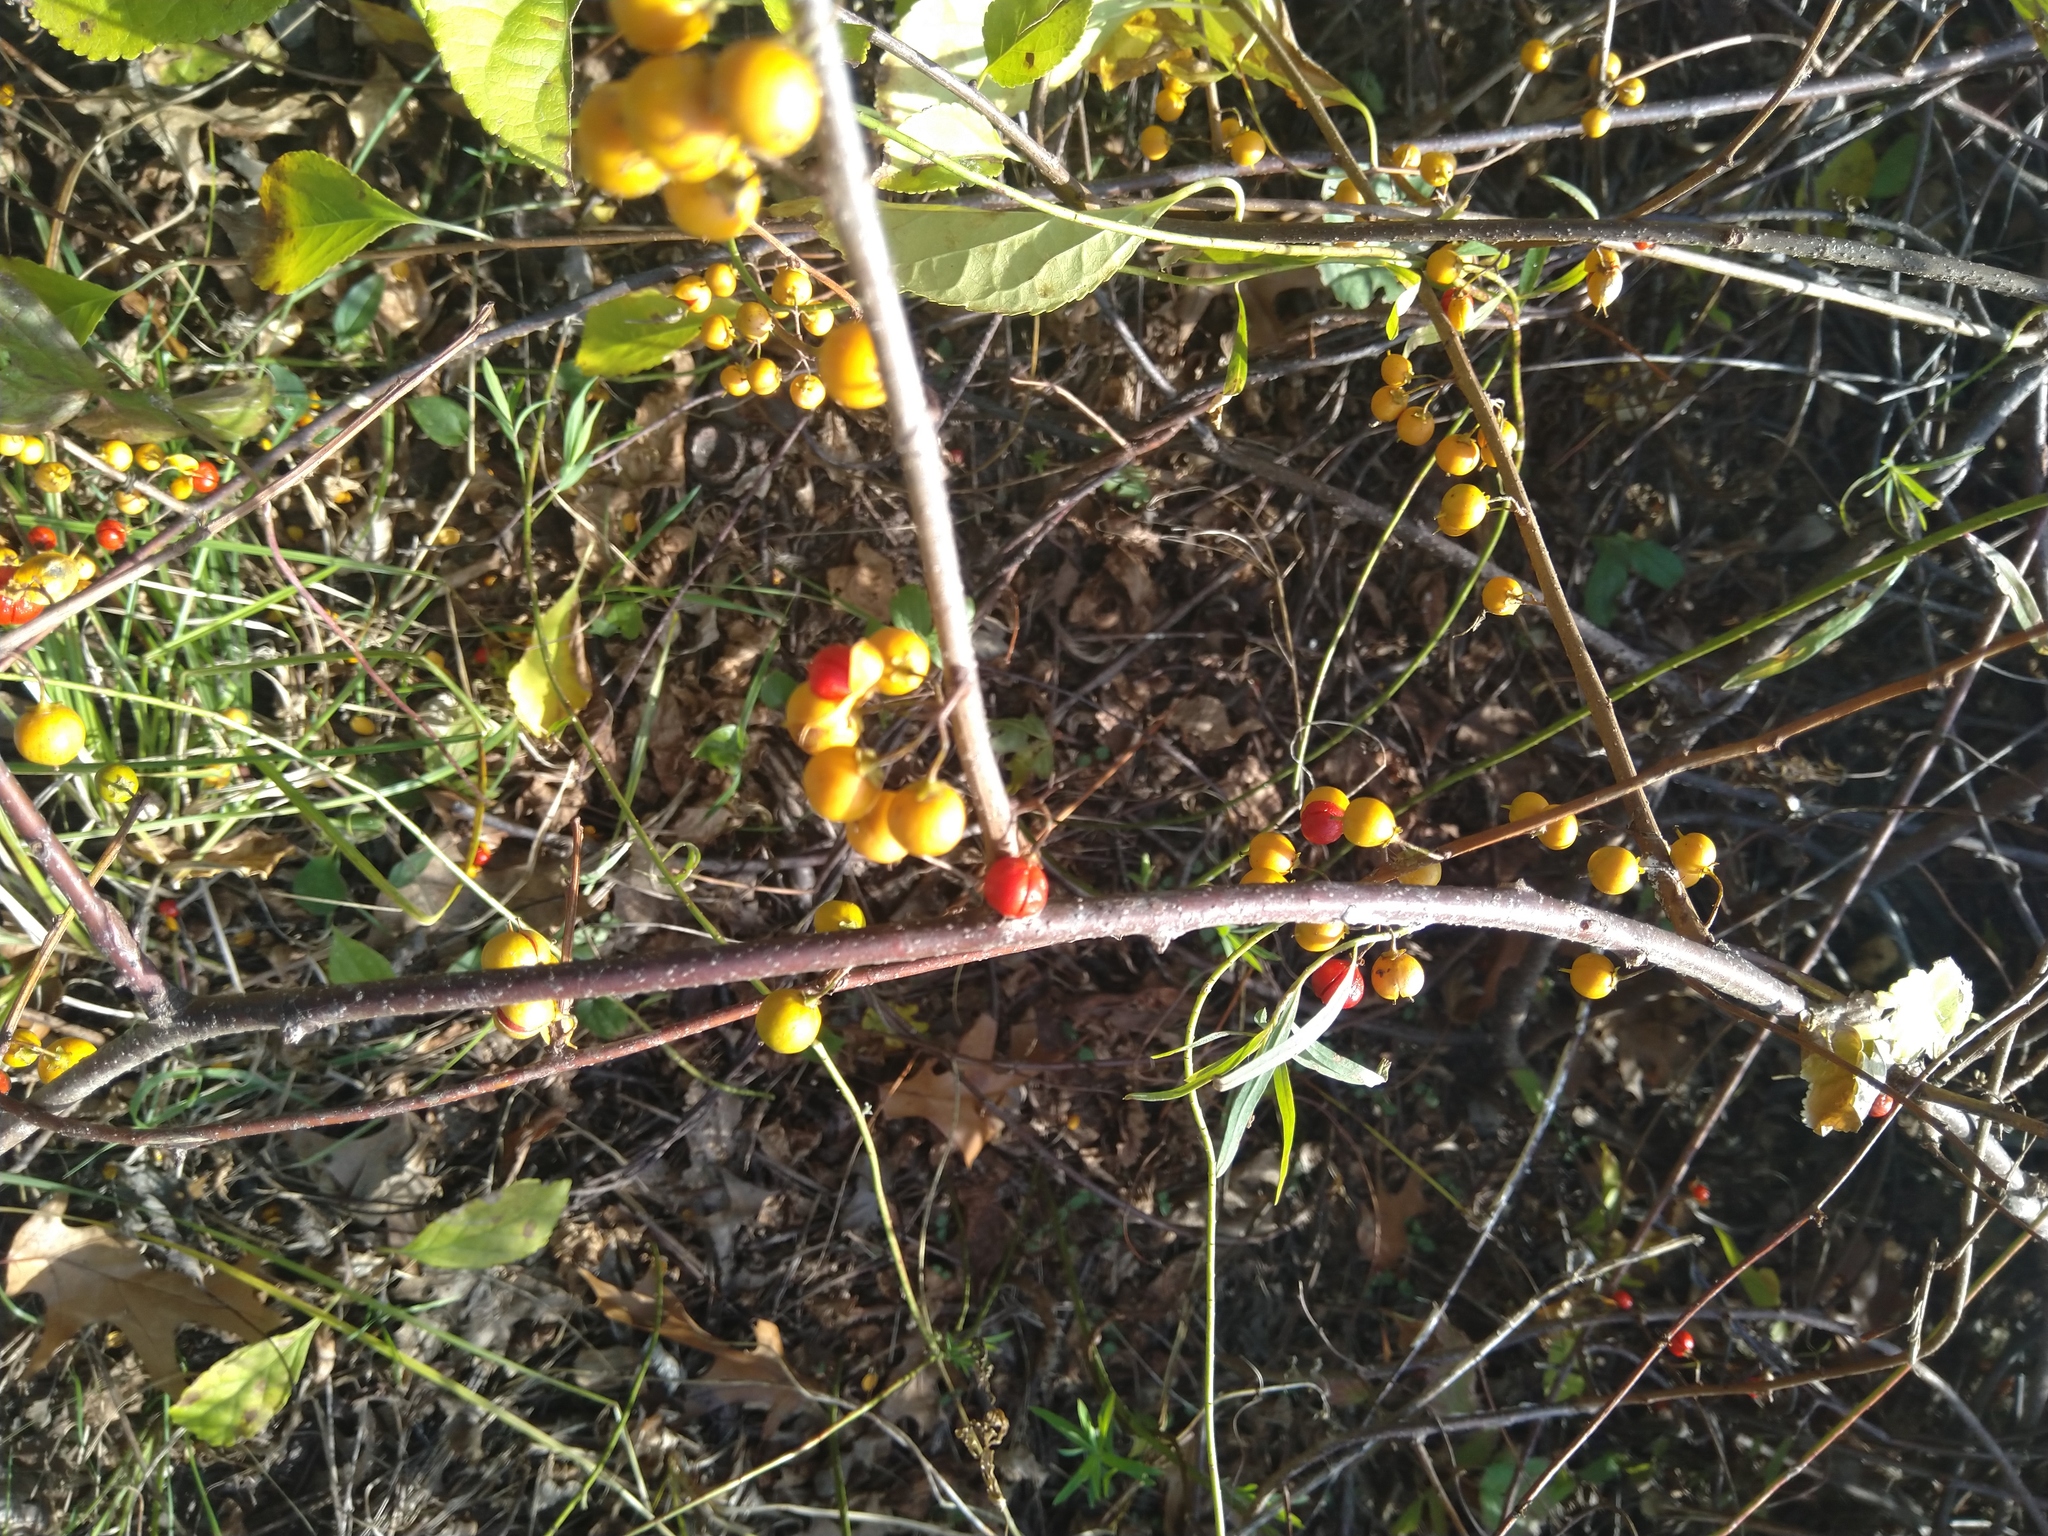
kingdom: Plantae
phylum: Tracheophyta
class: Magnoliopsida
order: Celastrales
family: Celastraceae
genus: Celastrus
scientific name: Celastrus orbiculatus
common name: Oriental bittersweet
